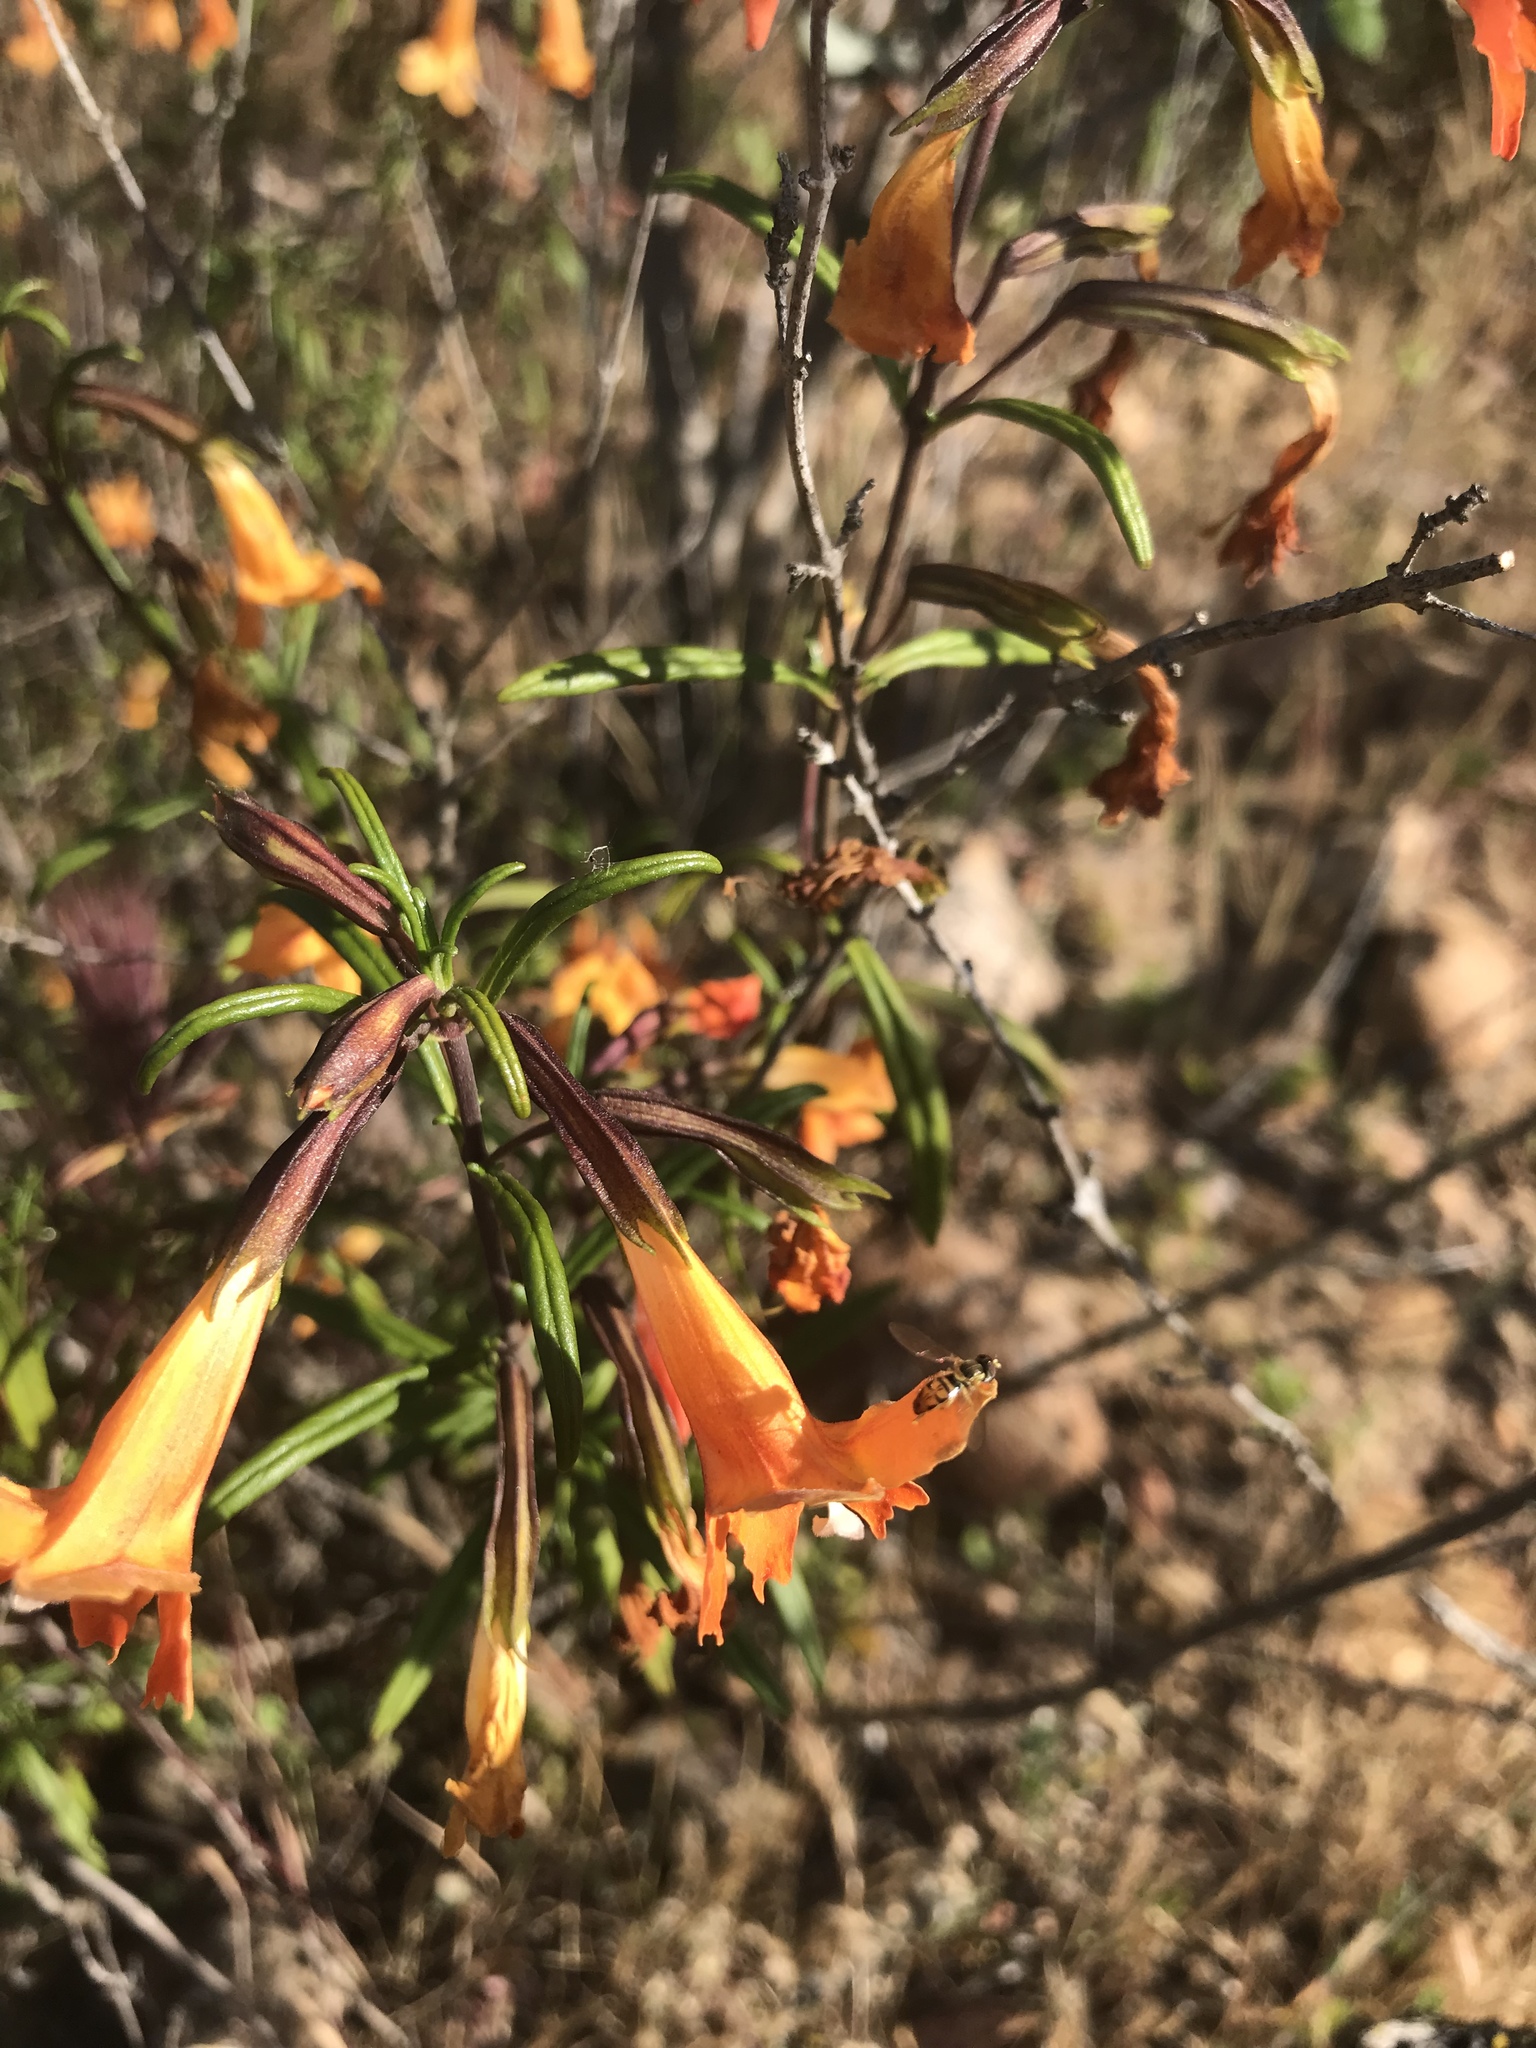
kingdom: Plantae
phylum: Tracheophyta
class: Magnoliopsida
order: Lamiales
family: Phrymaceae
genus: Diplacus
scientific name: Diplacus puniceus
